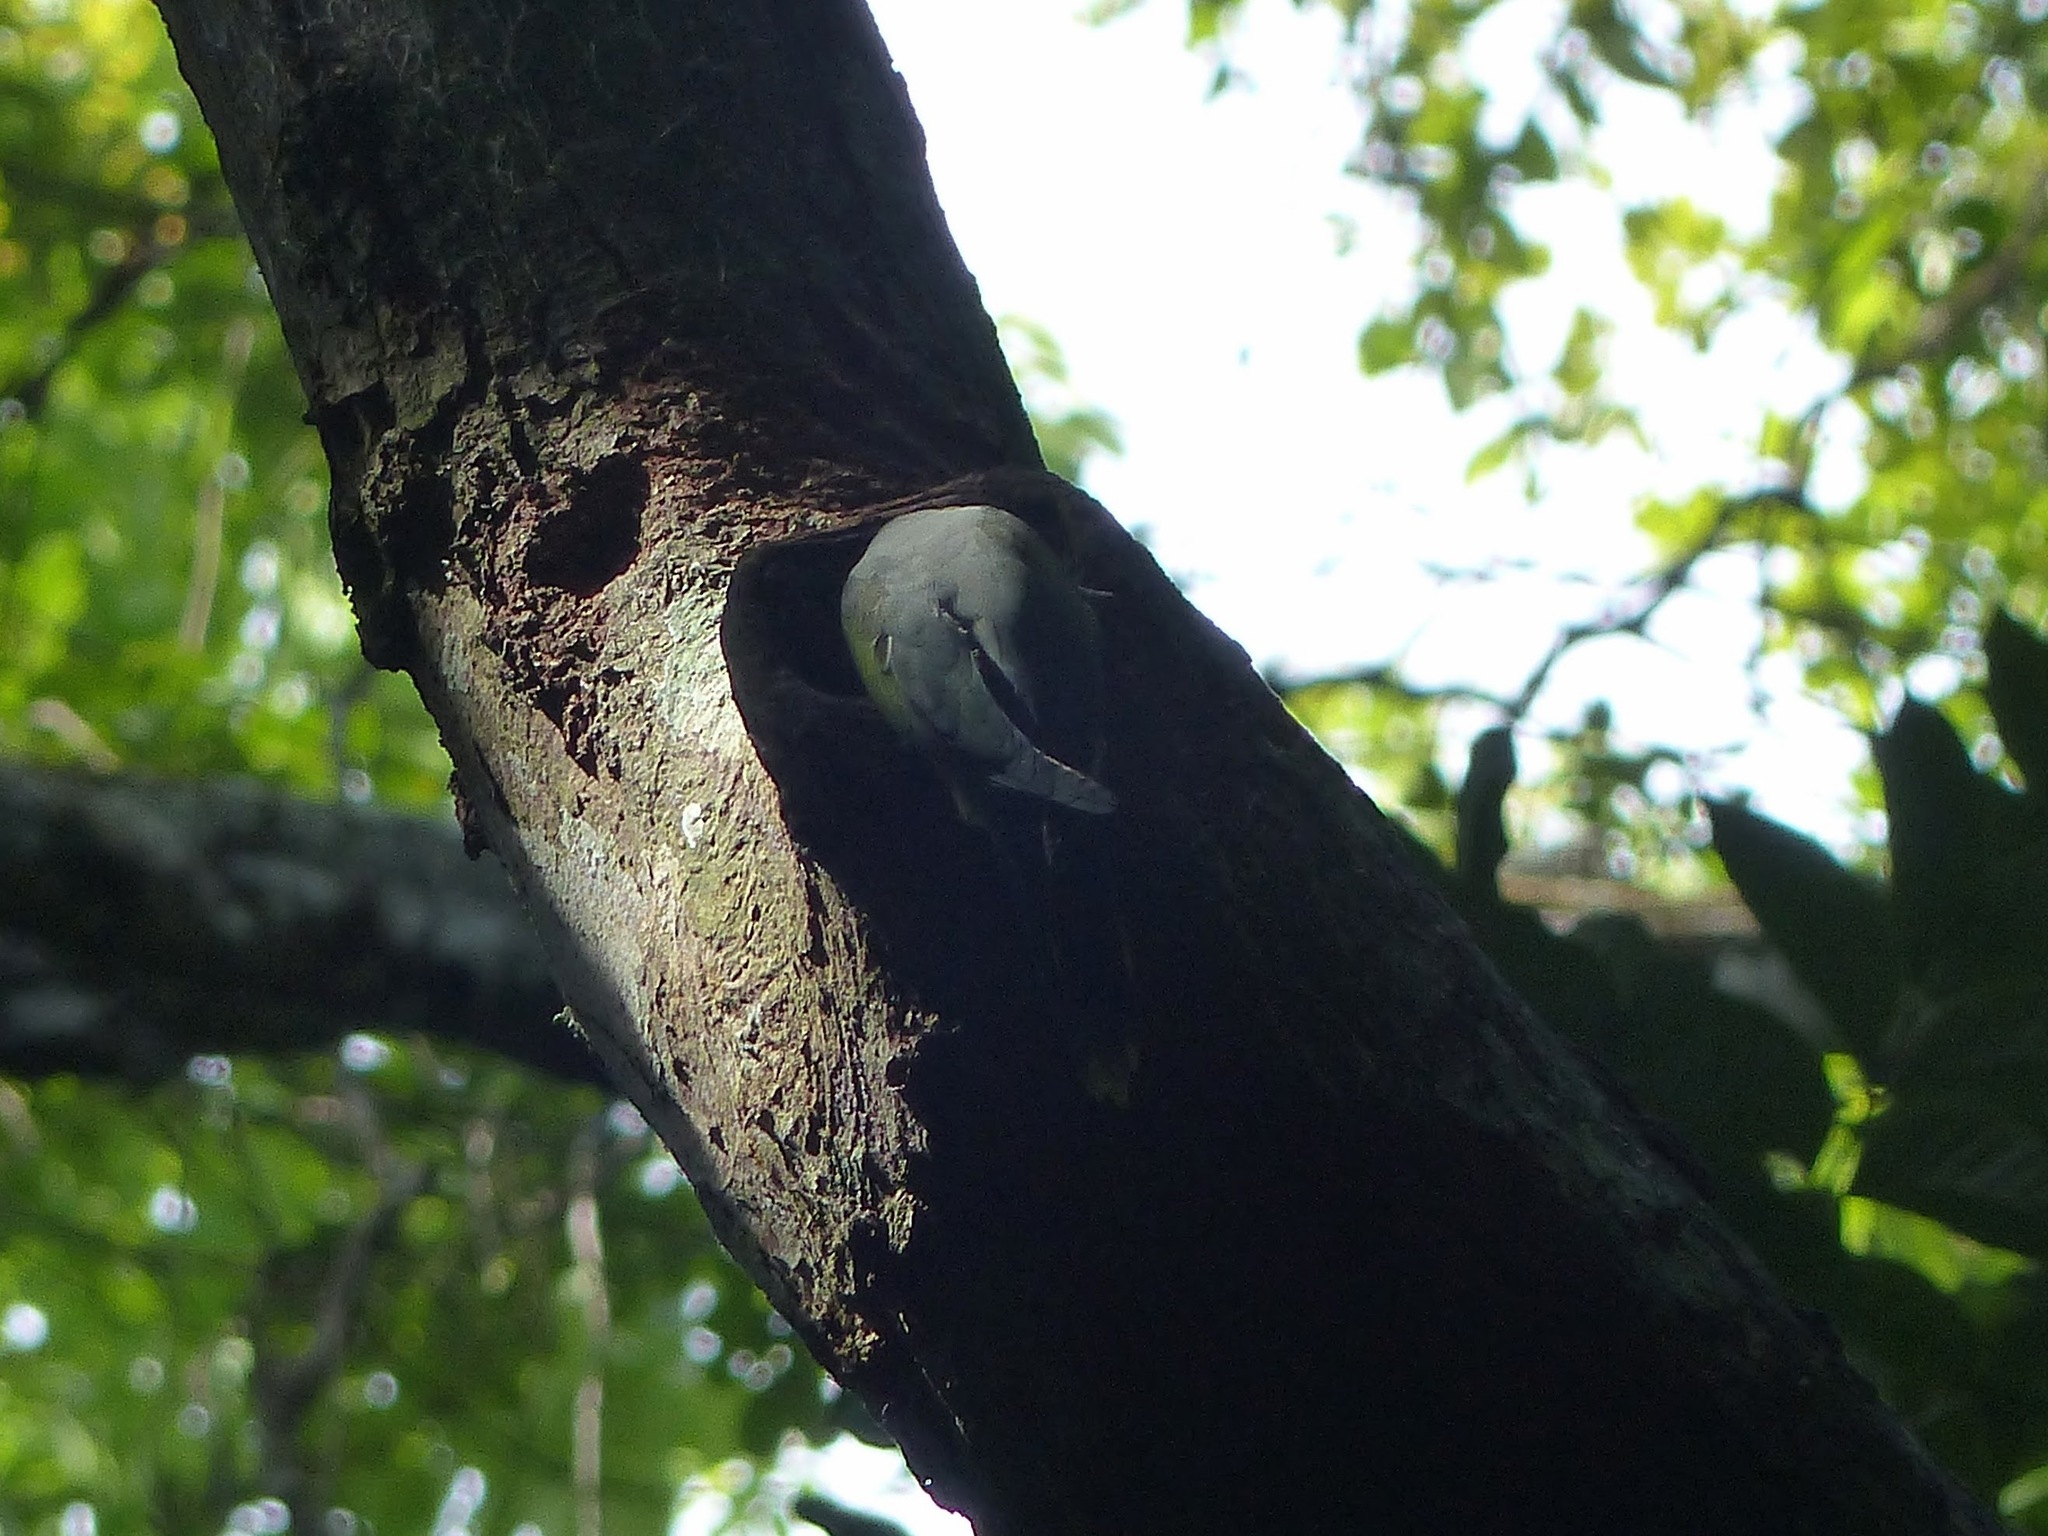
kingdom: Animalia
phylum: Chordata
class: Aves
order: Psittaciformes
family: Psittacidae
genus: Psittacula
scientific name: Psittacula calthrapae
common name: Layard's parakeet
